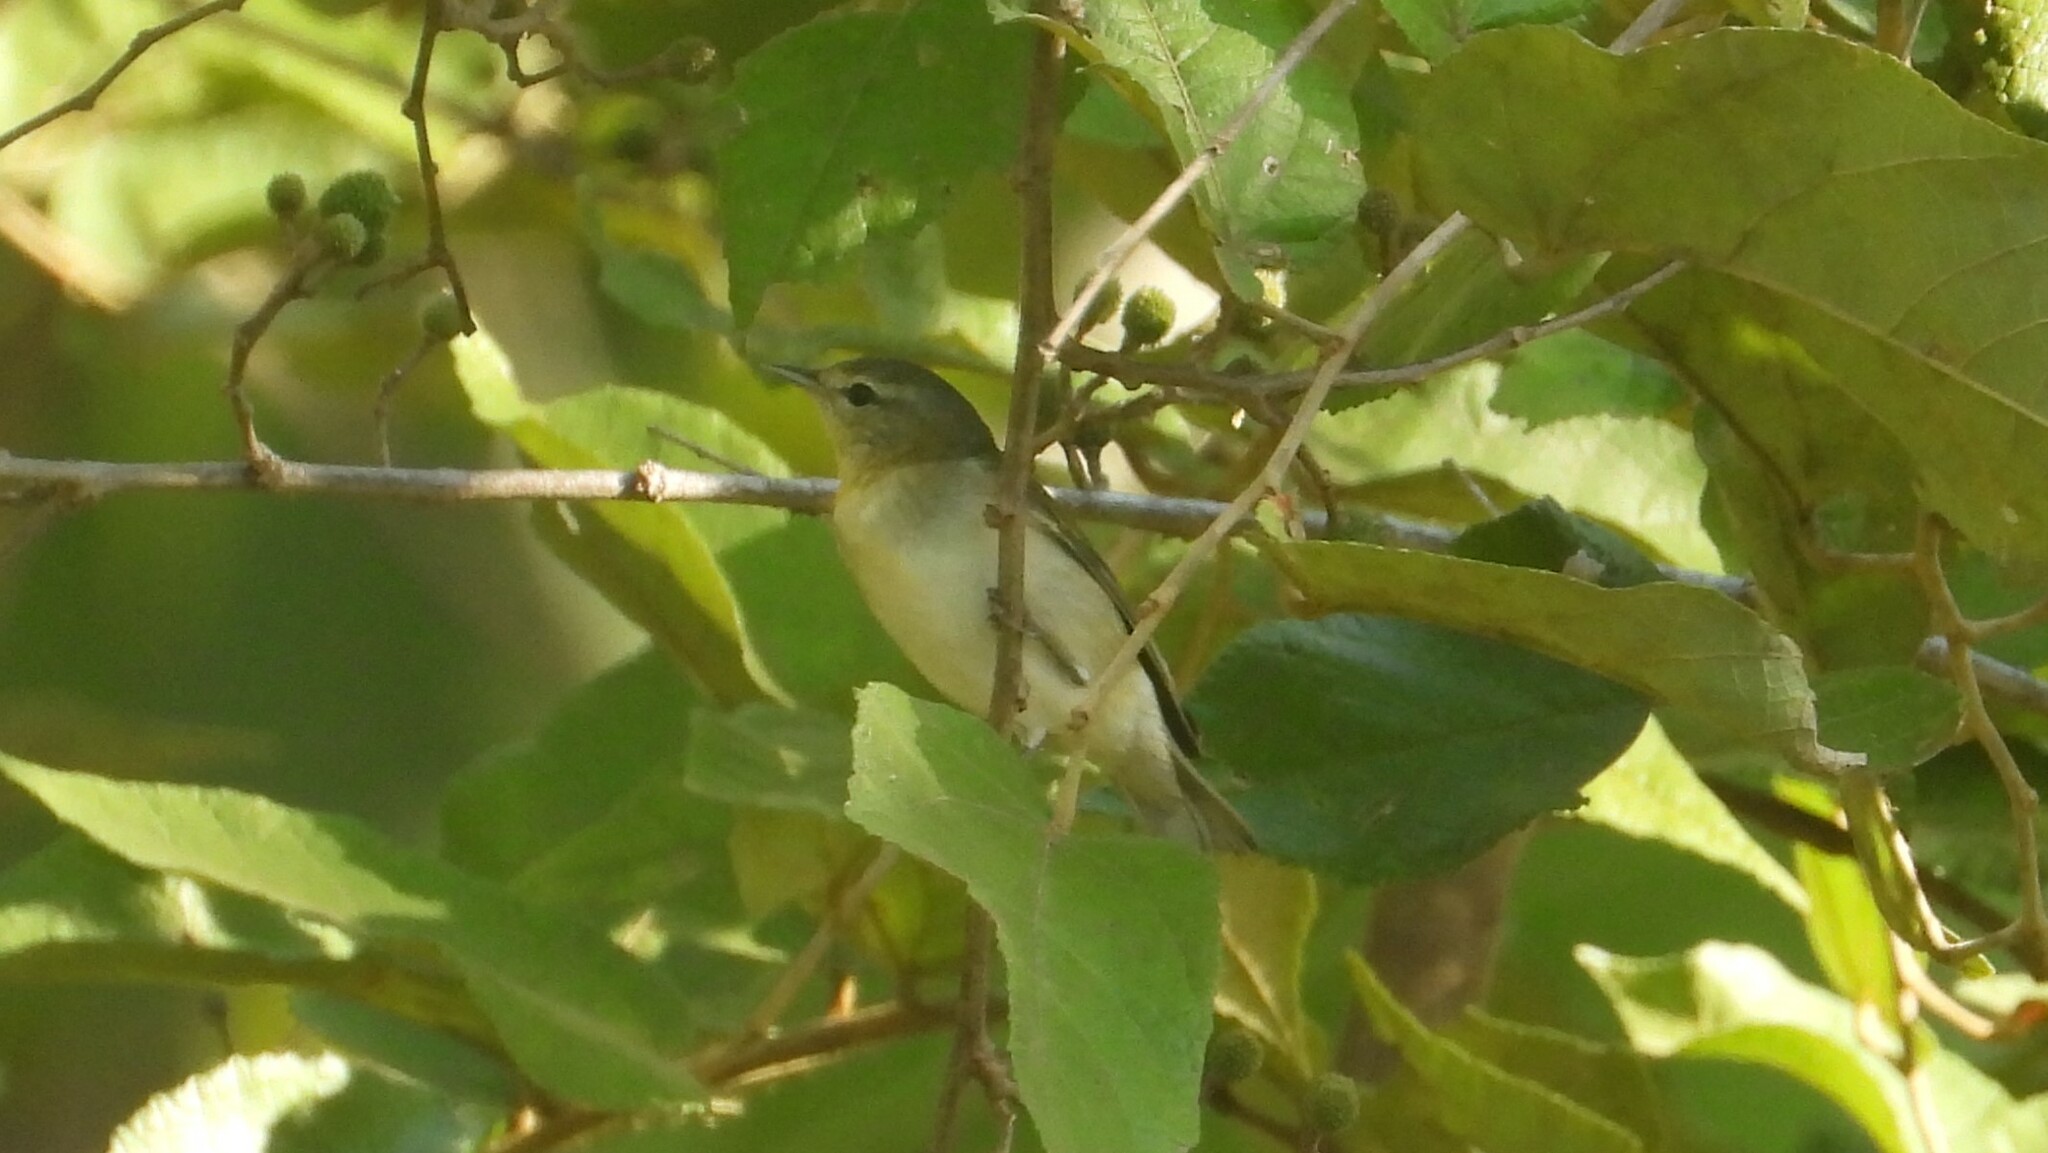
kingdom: Animalia
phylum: Chordata
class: Aves
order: Passeriformes
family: Parulidae
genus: Leiothlypis
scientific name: Leiothlypis peregrina
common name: Tennessee warbler
